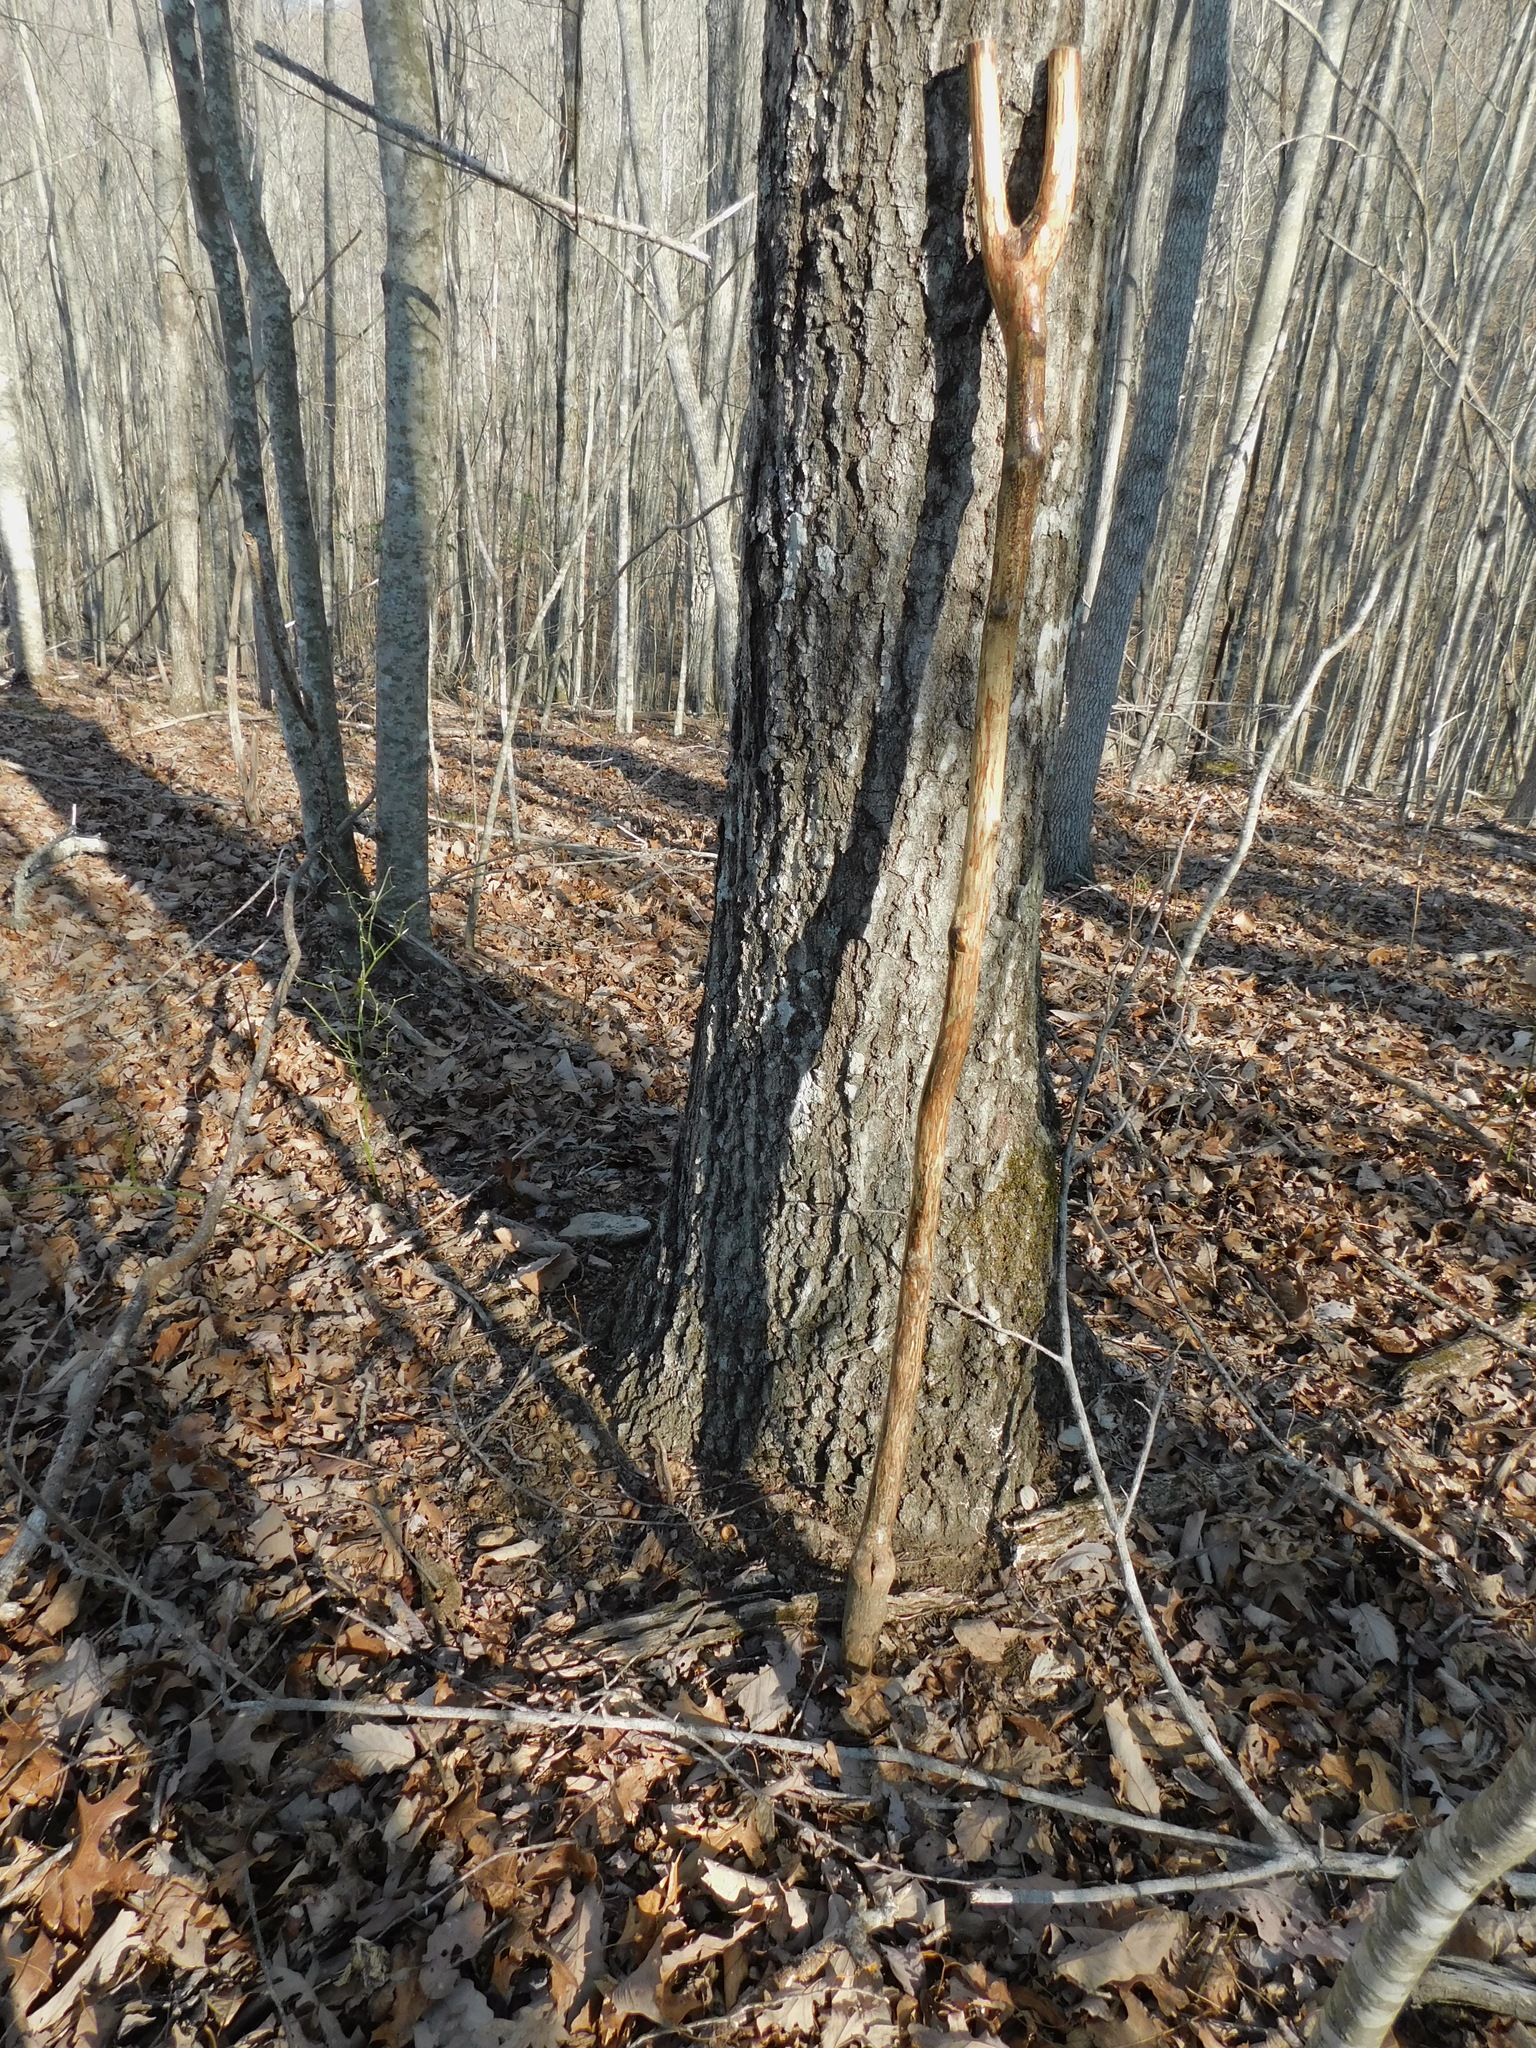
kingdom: Plantae
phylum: Tracheophyta
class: Magnoliopsida
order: Fagales
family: Fagaceae
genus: Quercus
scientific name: Quercus coccinea
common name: Scarlet oak
